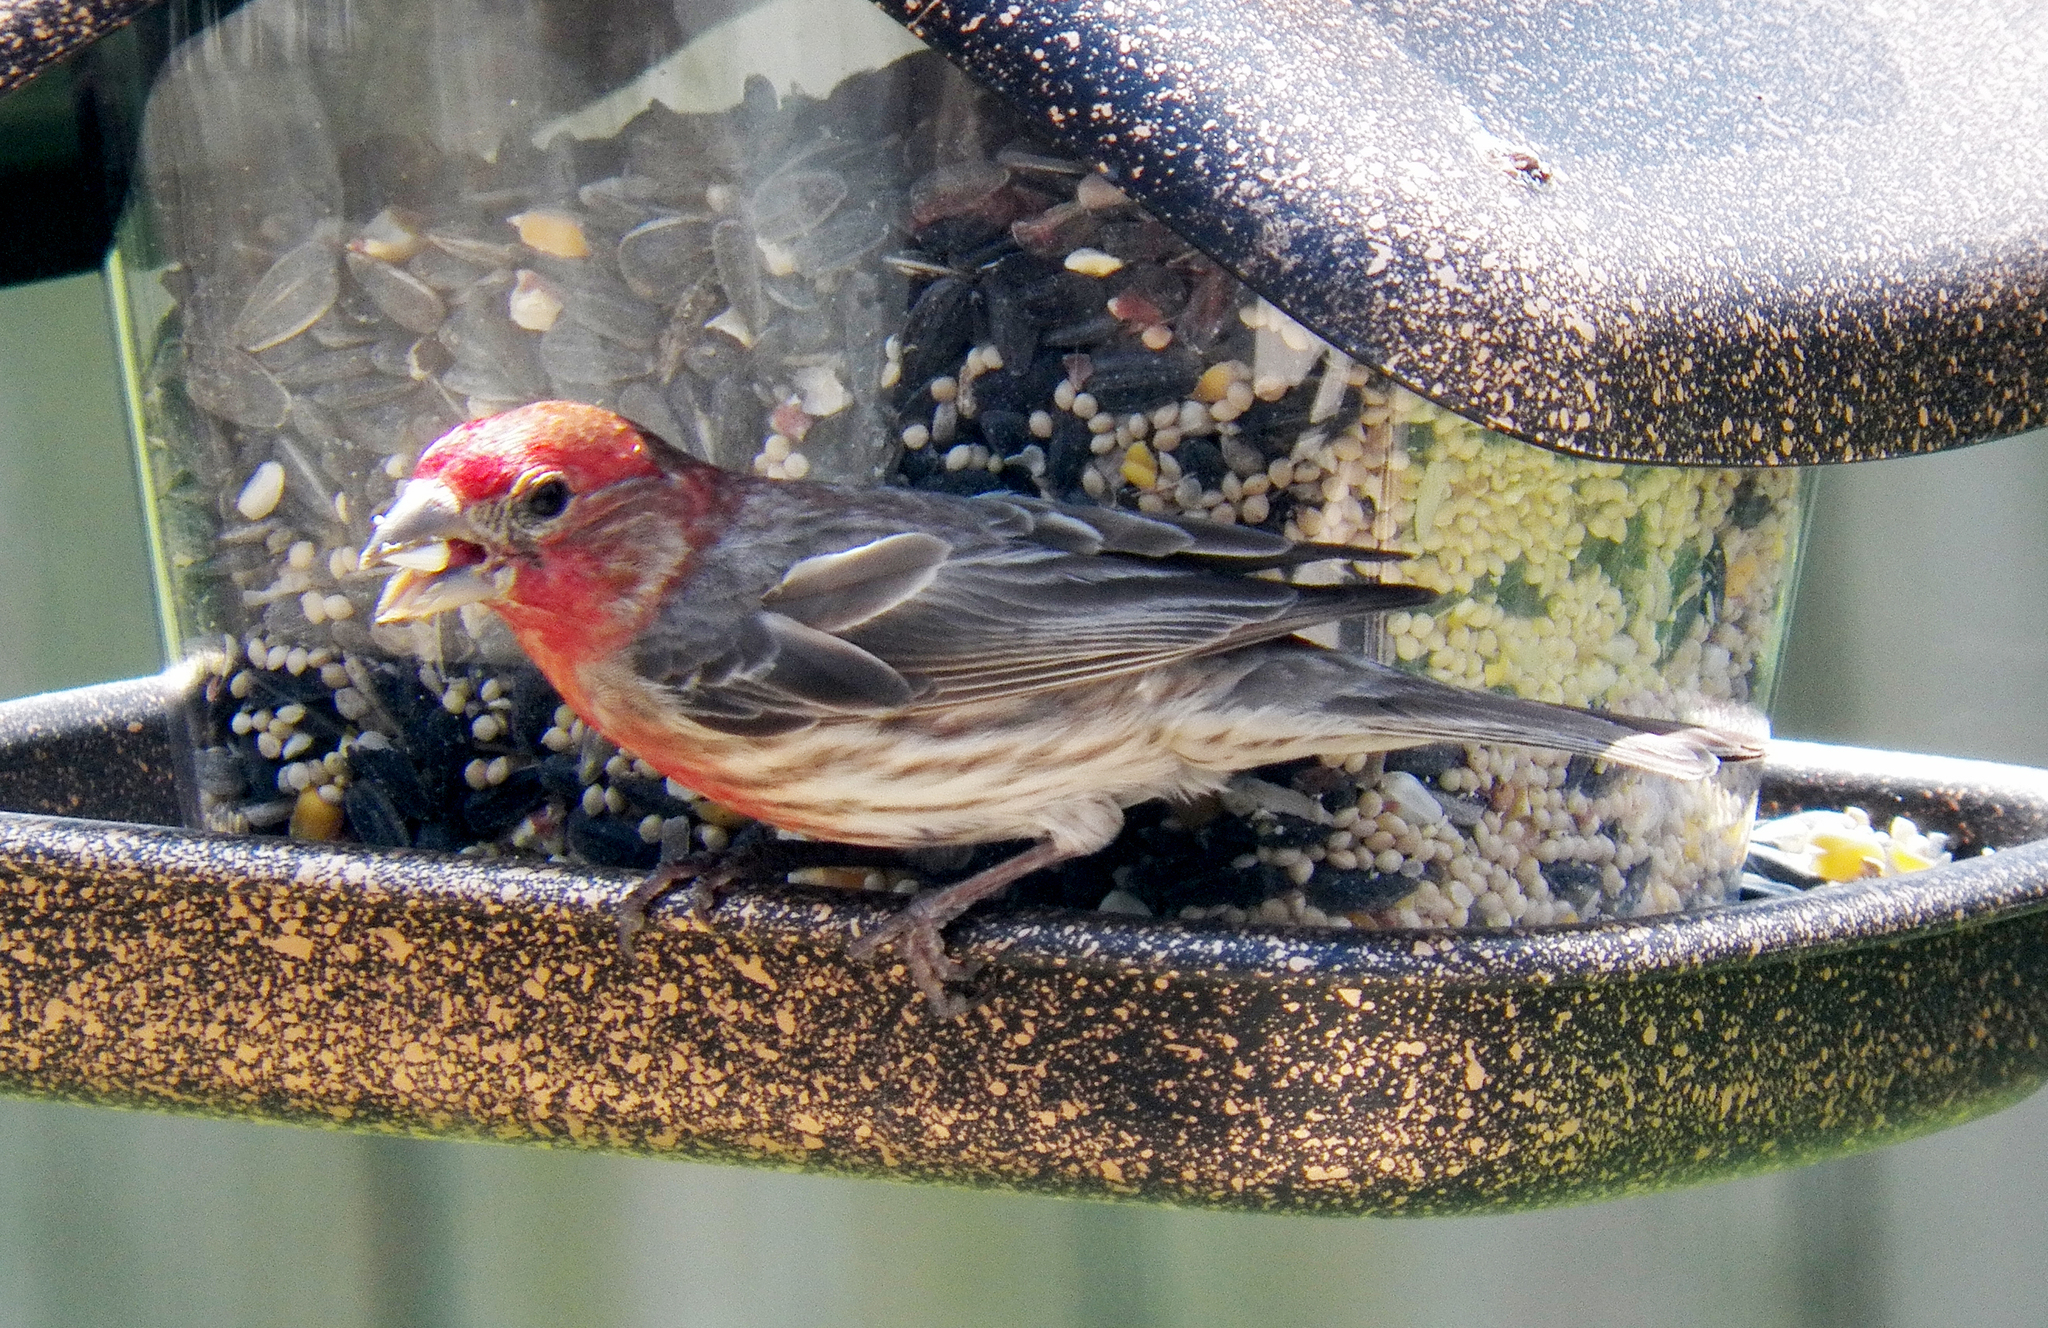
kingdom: Animalia
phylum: Chordata
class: Aves
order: Passeriformes
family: Fringillidae
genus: Haemorhous
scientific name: Haemorhous mexicanus
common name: House finch
